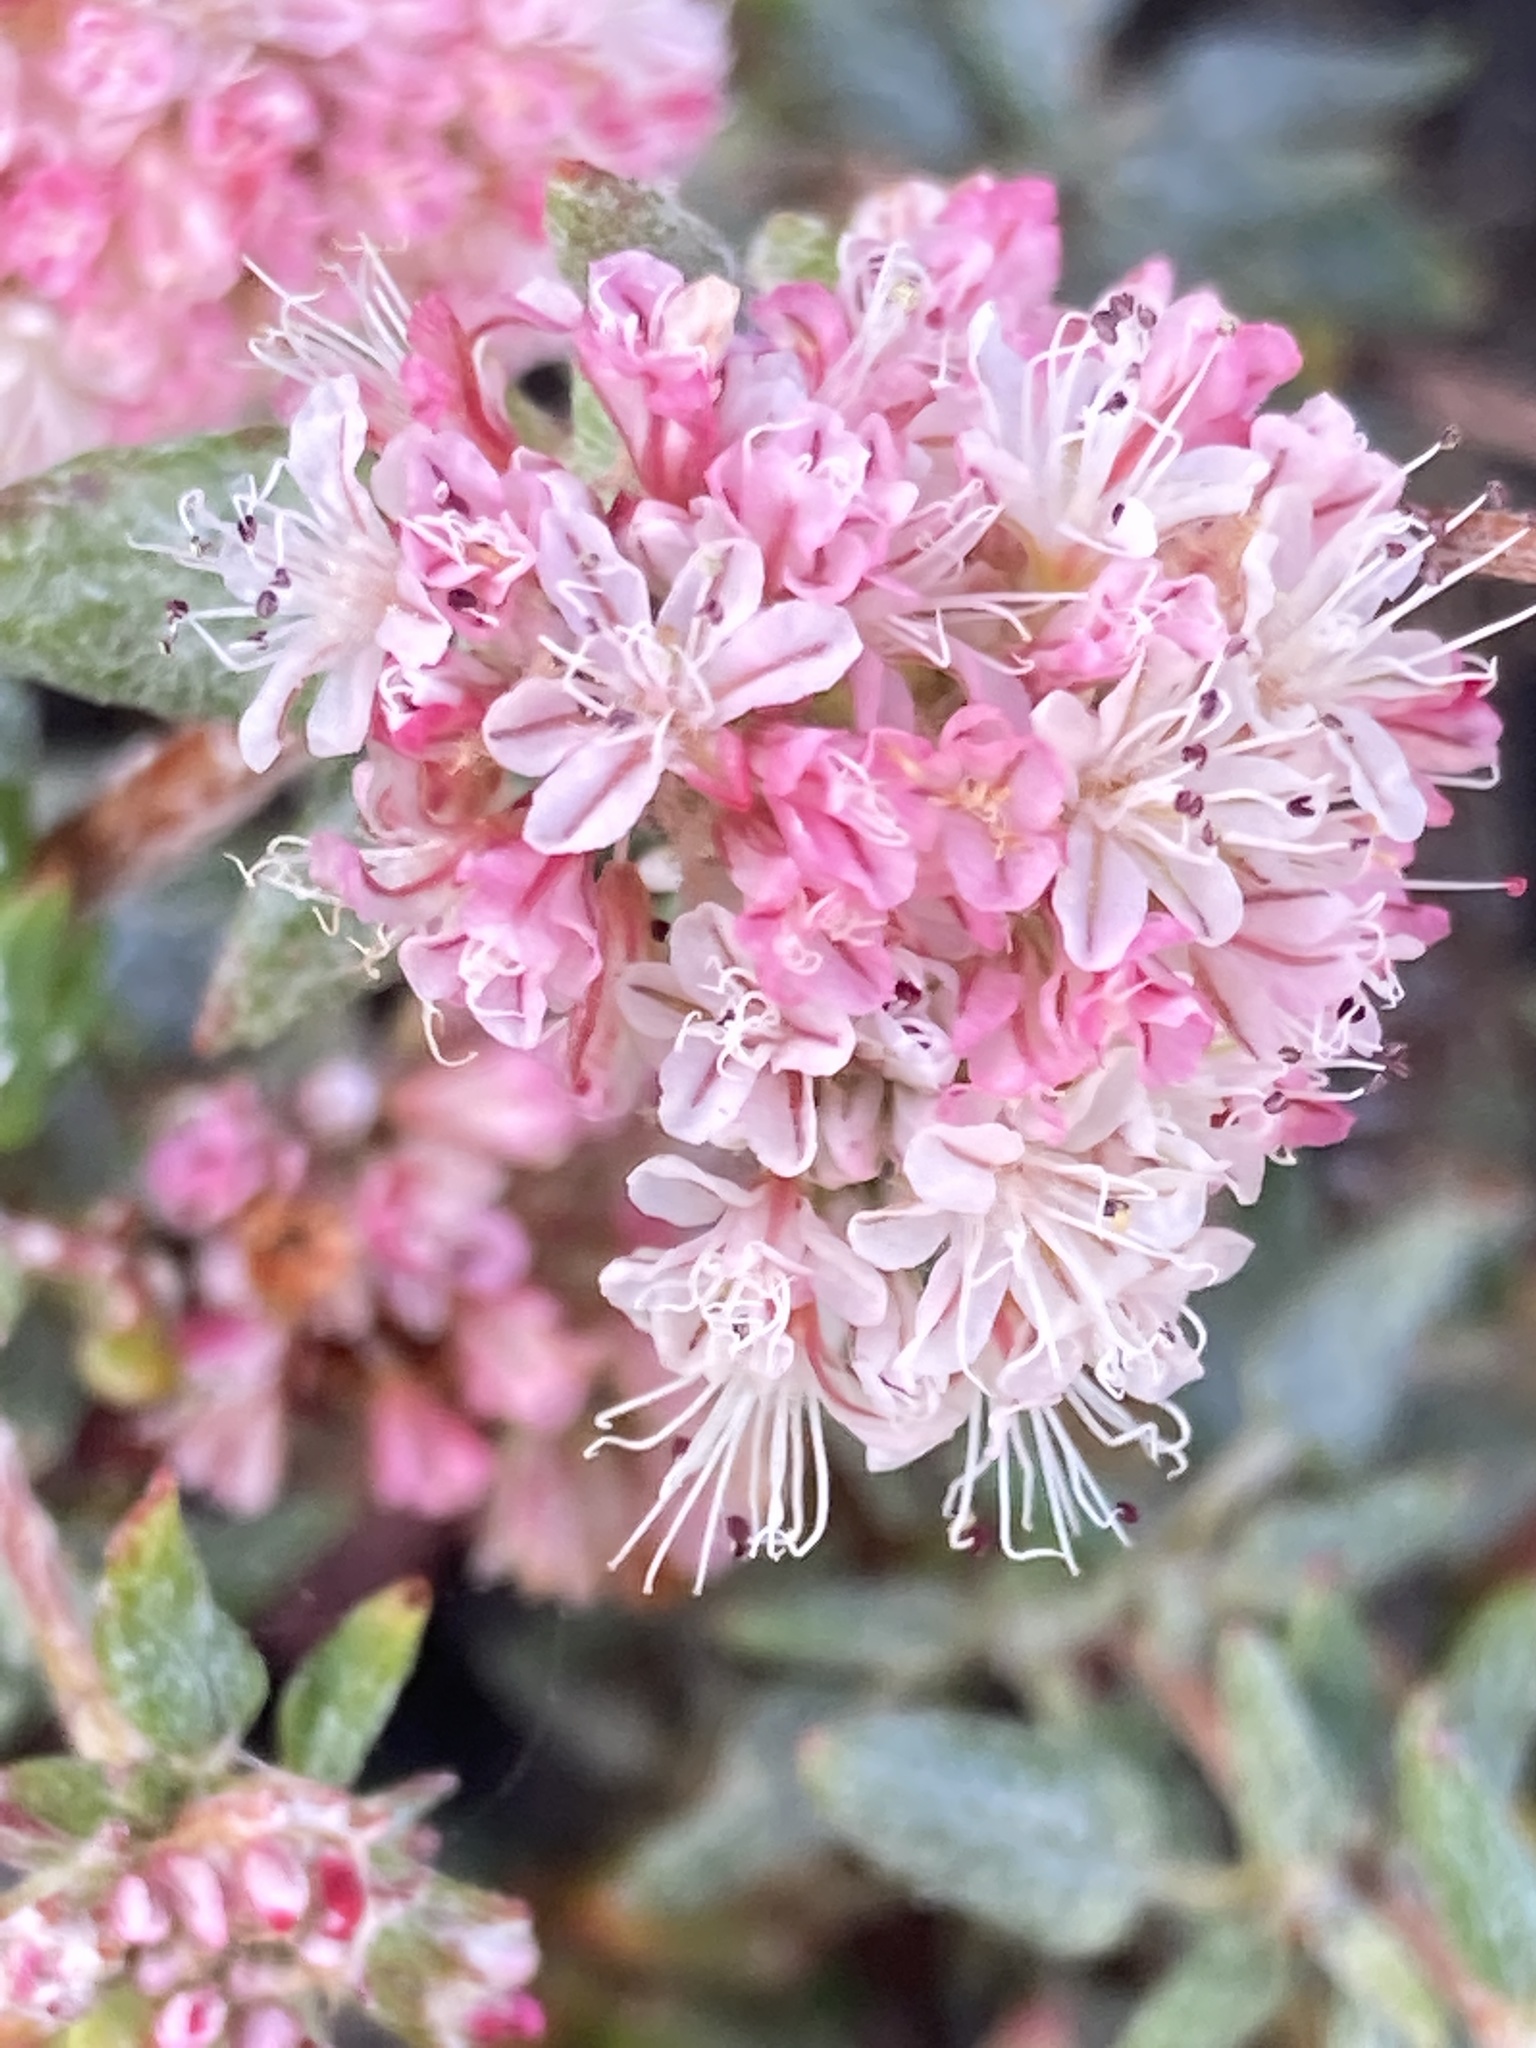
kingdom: Plantae
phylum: Tracheophyta
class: Magnoliopsida
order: Caryophyllales
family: Polygonaceae
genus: Eriogonum
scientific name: Eriogonum parvifolium
